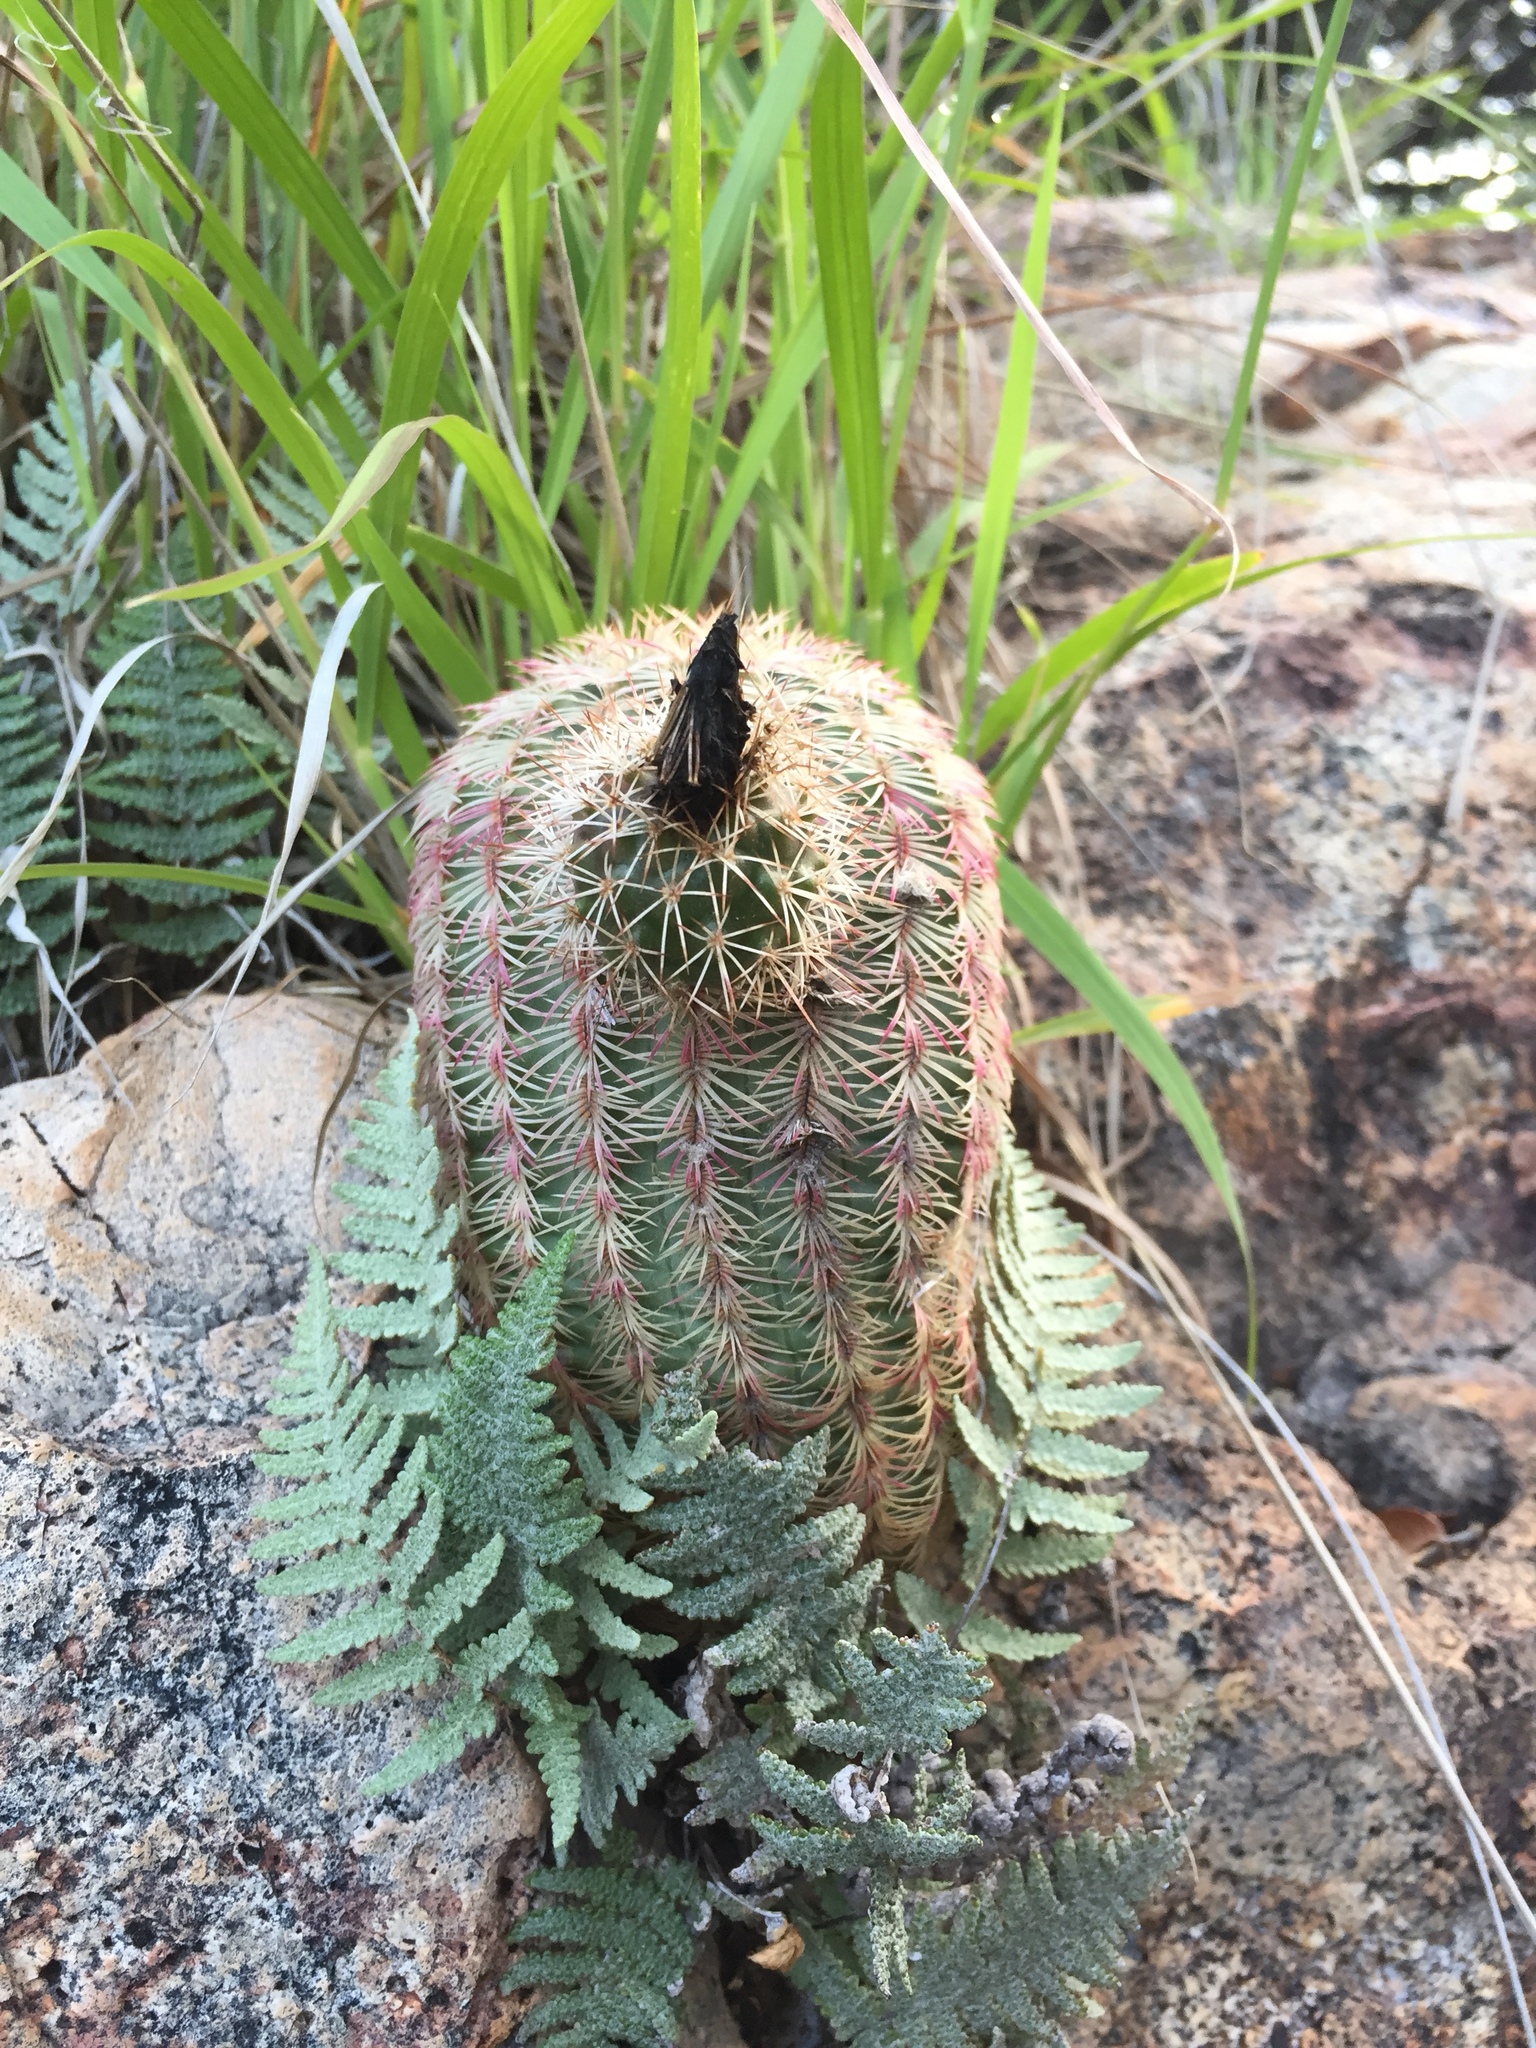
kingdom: Plantae
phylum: Tracheophyta
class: Magnoliopsida
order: Caryophyllales
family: Cactaceae
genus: Echinocereus
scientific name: Echinocereus rigidissimus
